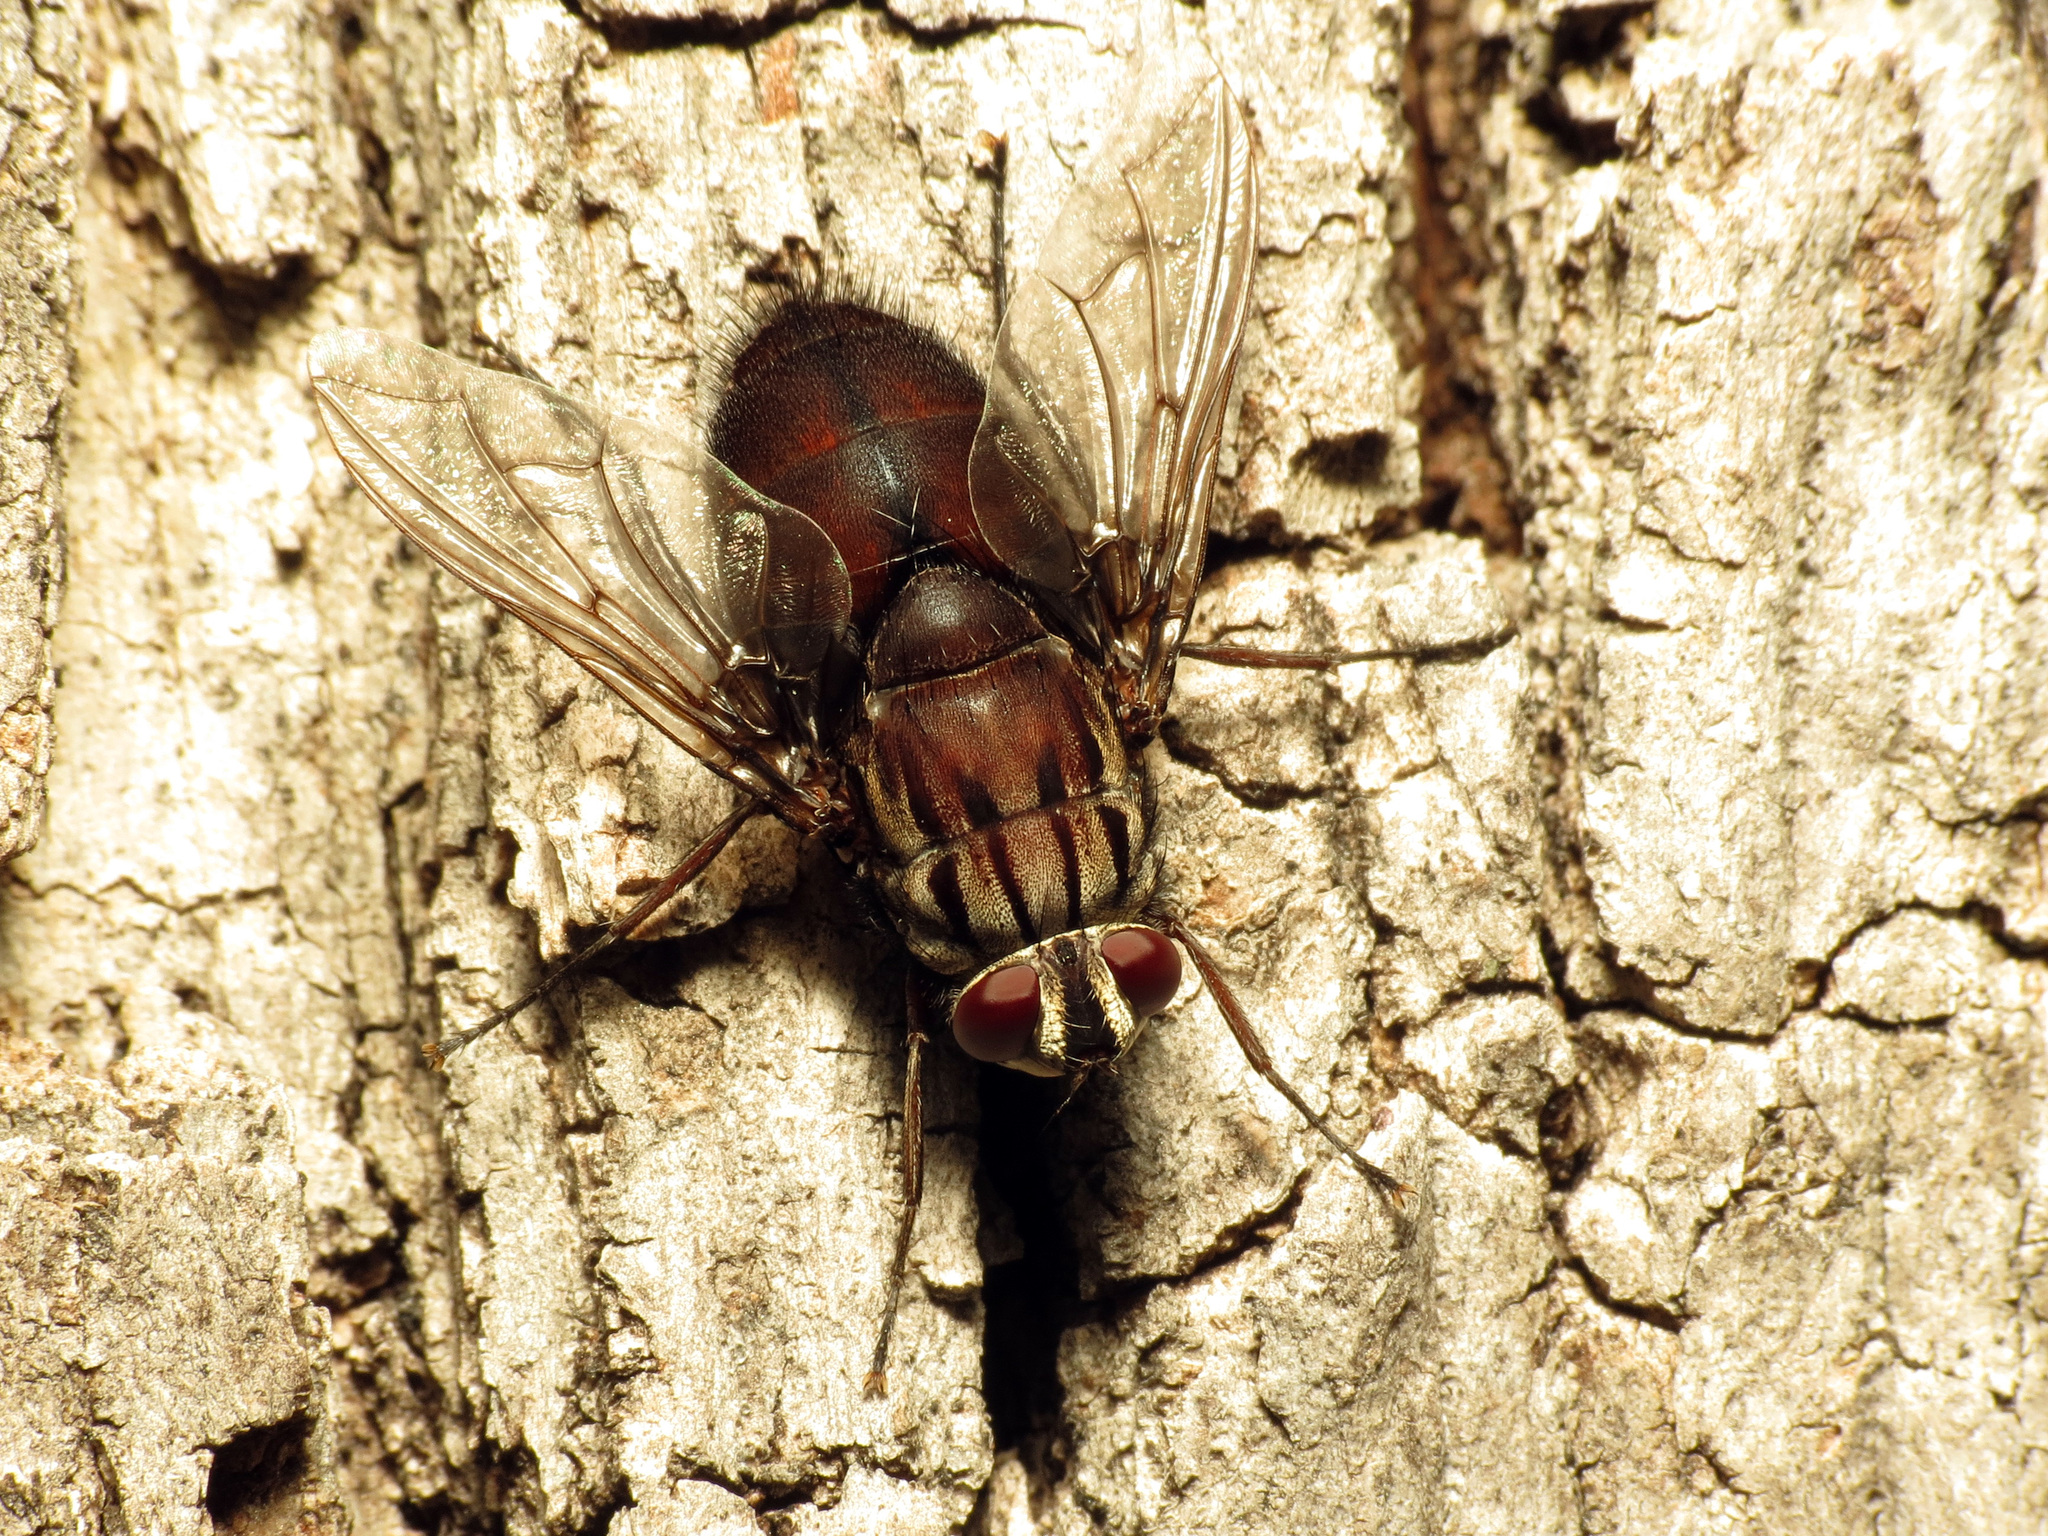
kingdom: Animalia
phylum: Arthropoda
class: Insecta
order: Diptera
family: Tachinidae
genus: Trixodes
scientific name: Trixodes obesus
